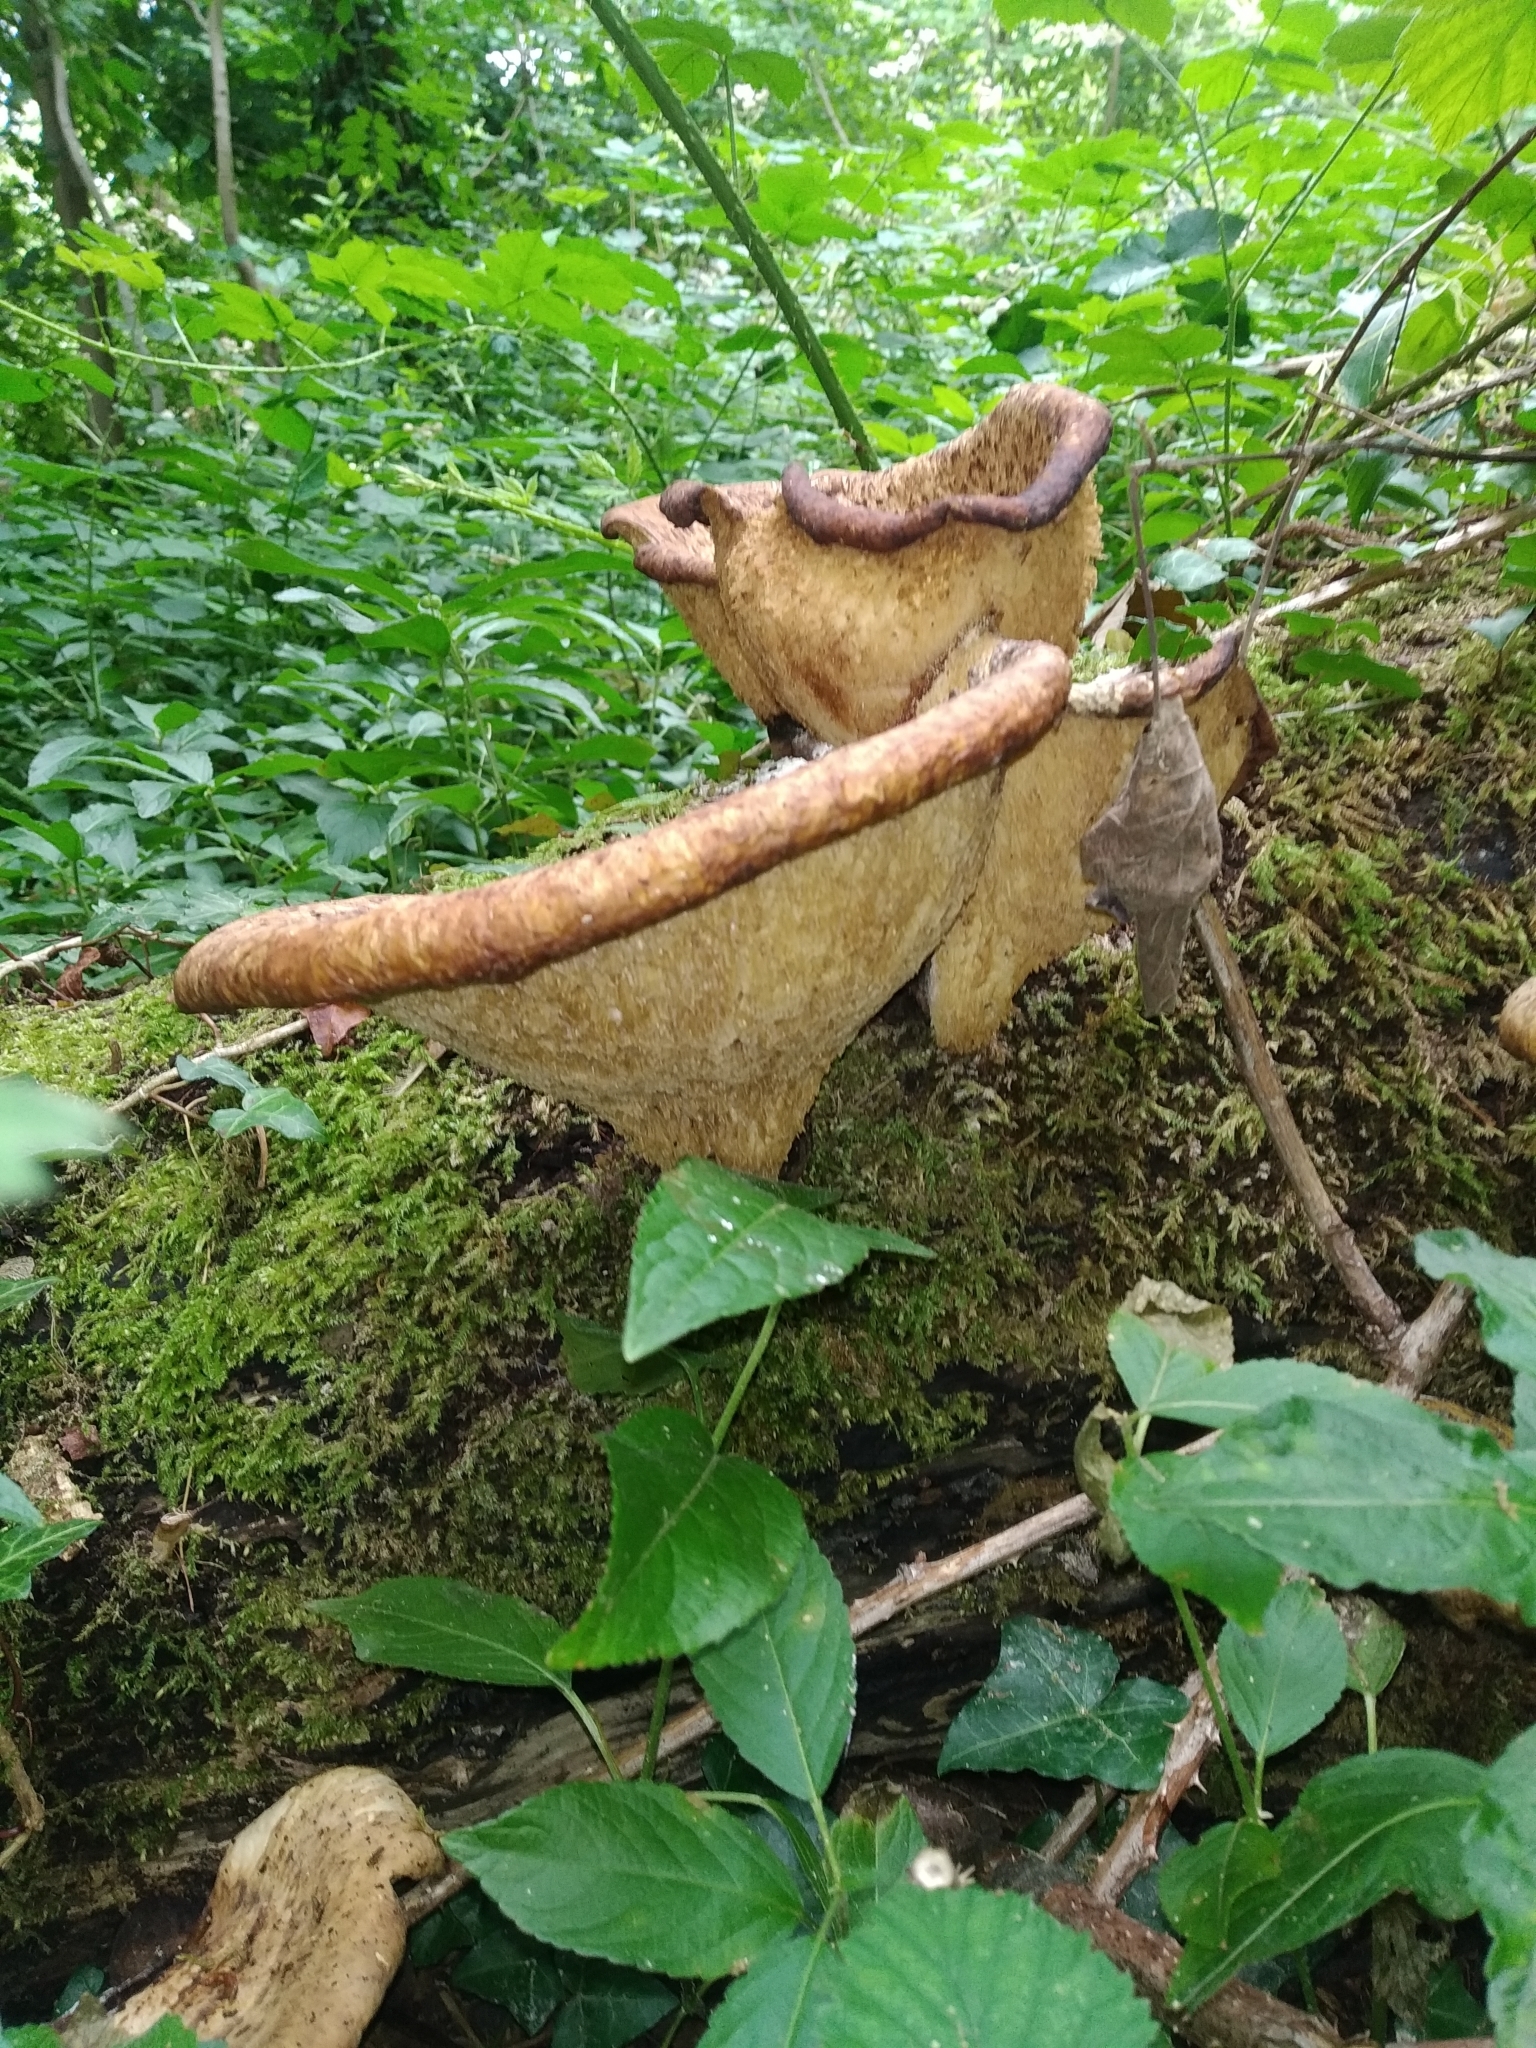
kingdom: Fungi
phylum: Basidiomycota
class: Agaricomycetes
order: Polyporales
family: Polyporaceae
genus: Cerioporus
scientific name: Cerioporus squamosus
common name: Dryad's saddle
